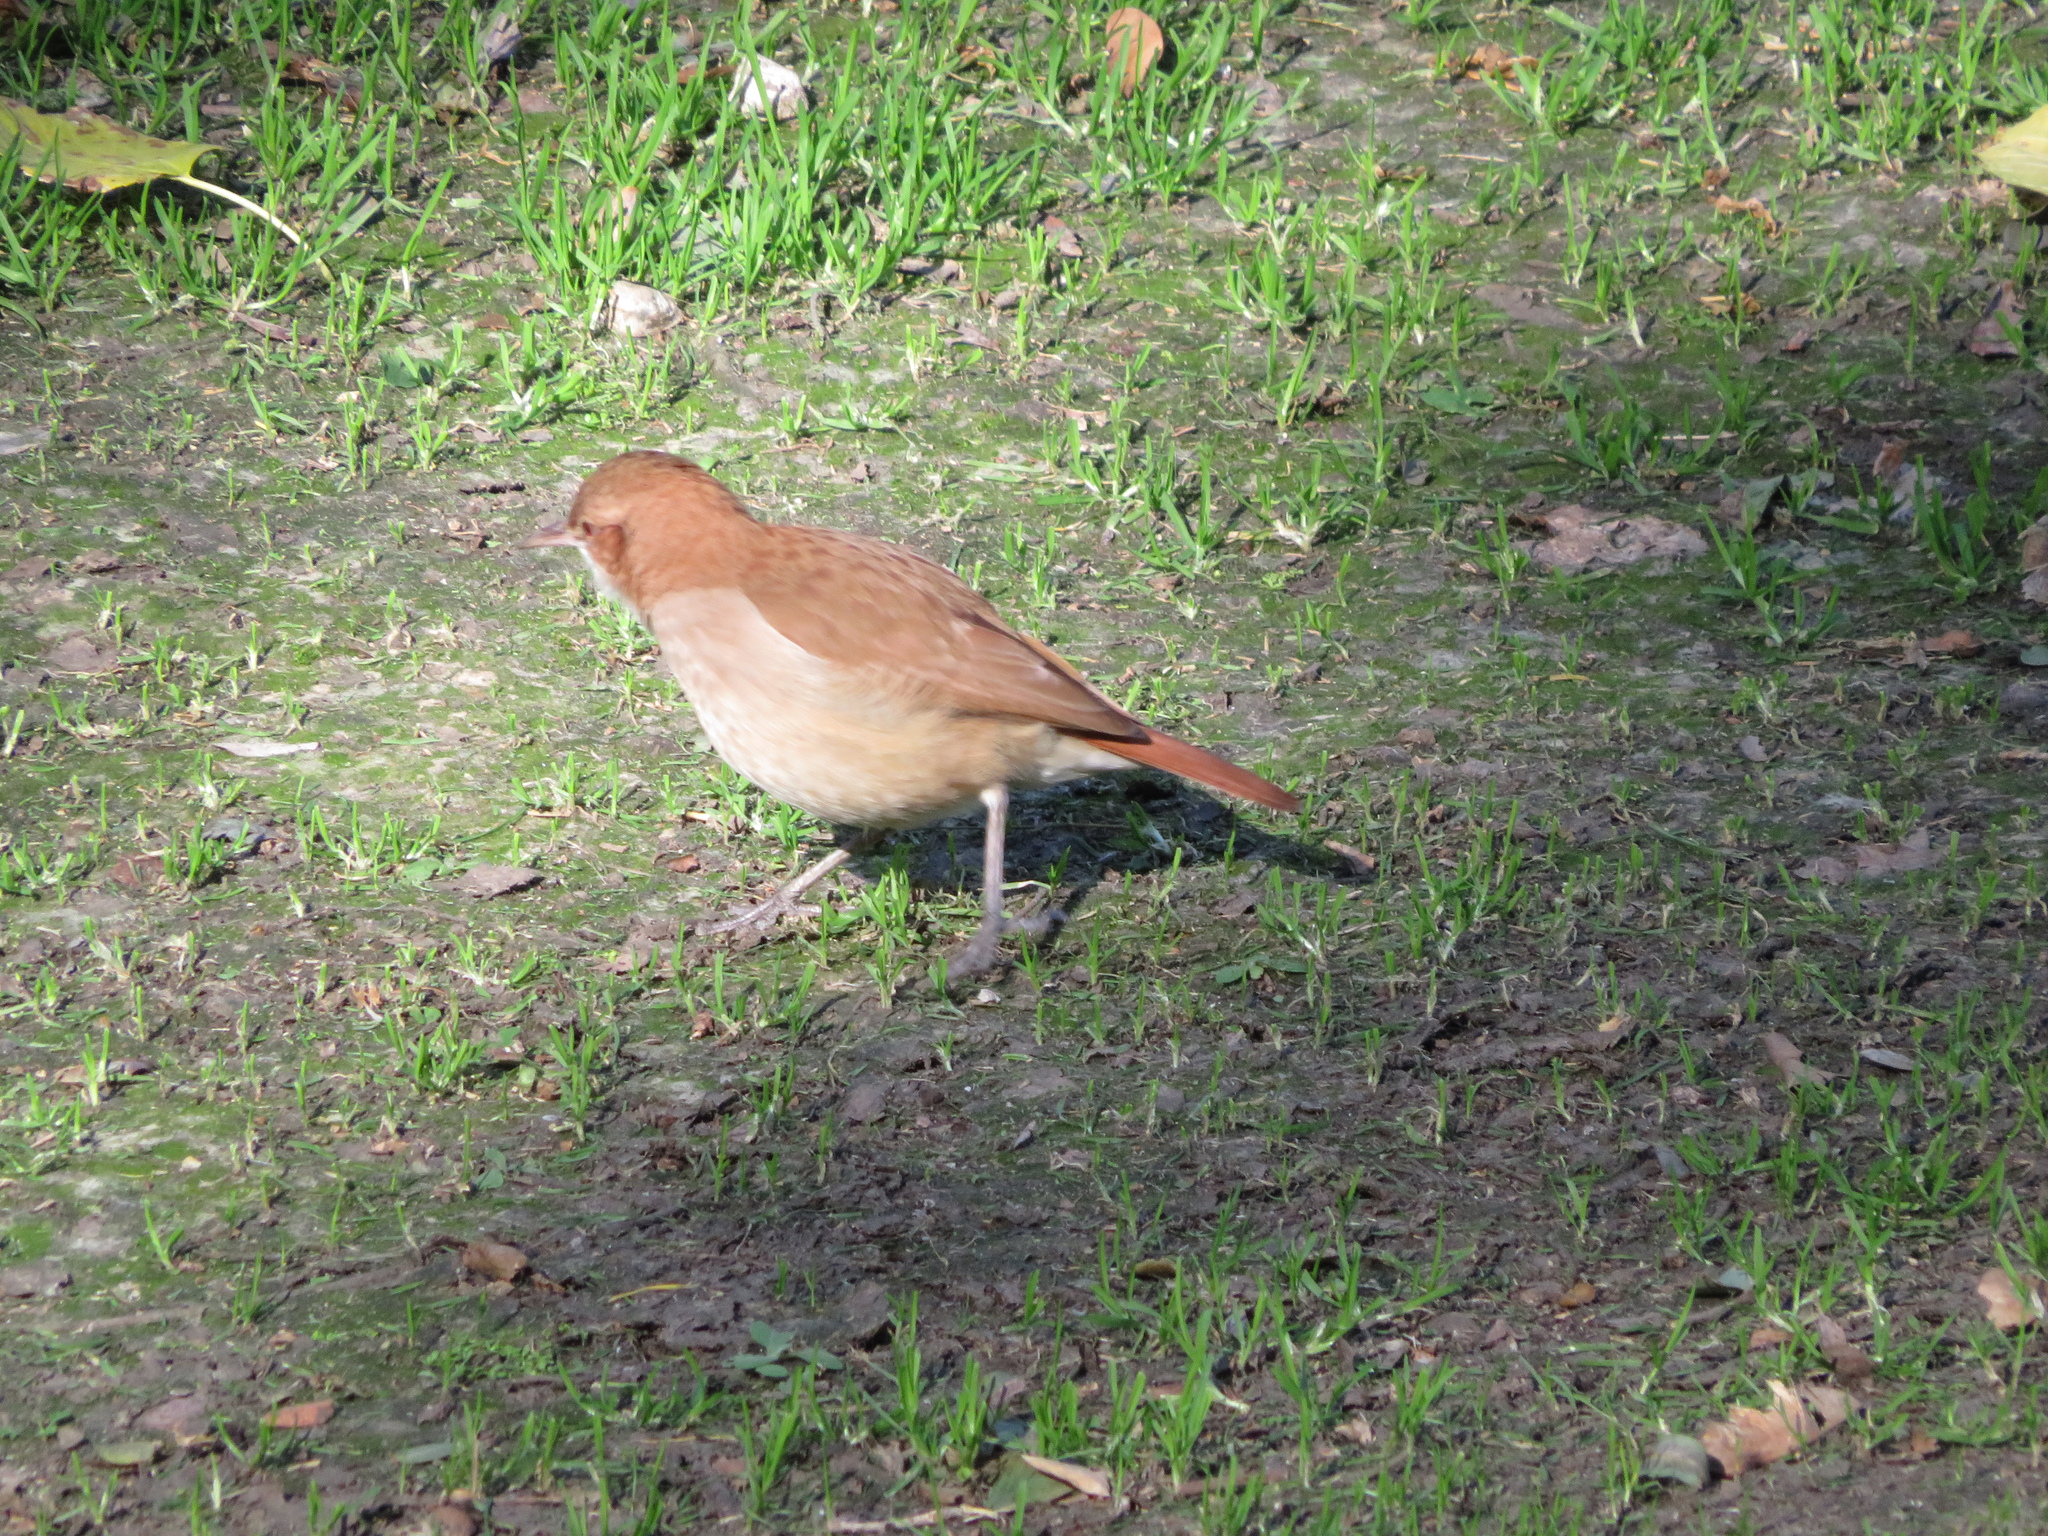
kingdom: Animalia
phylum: Chordata
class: Aves
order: Passeriformes
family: Furnariidae
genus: Furnarius
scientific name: Furnarius rufus
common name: Rufous hornero
